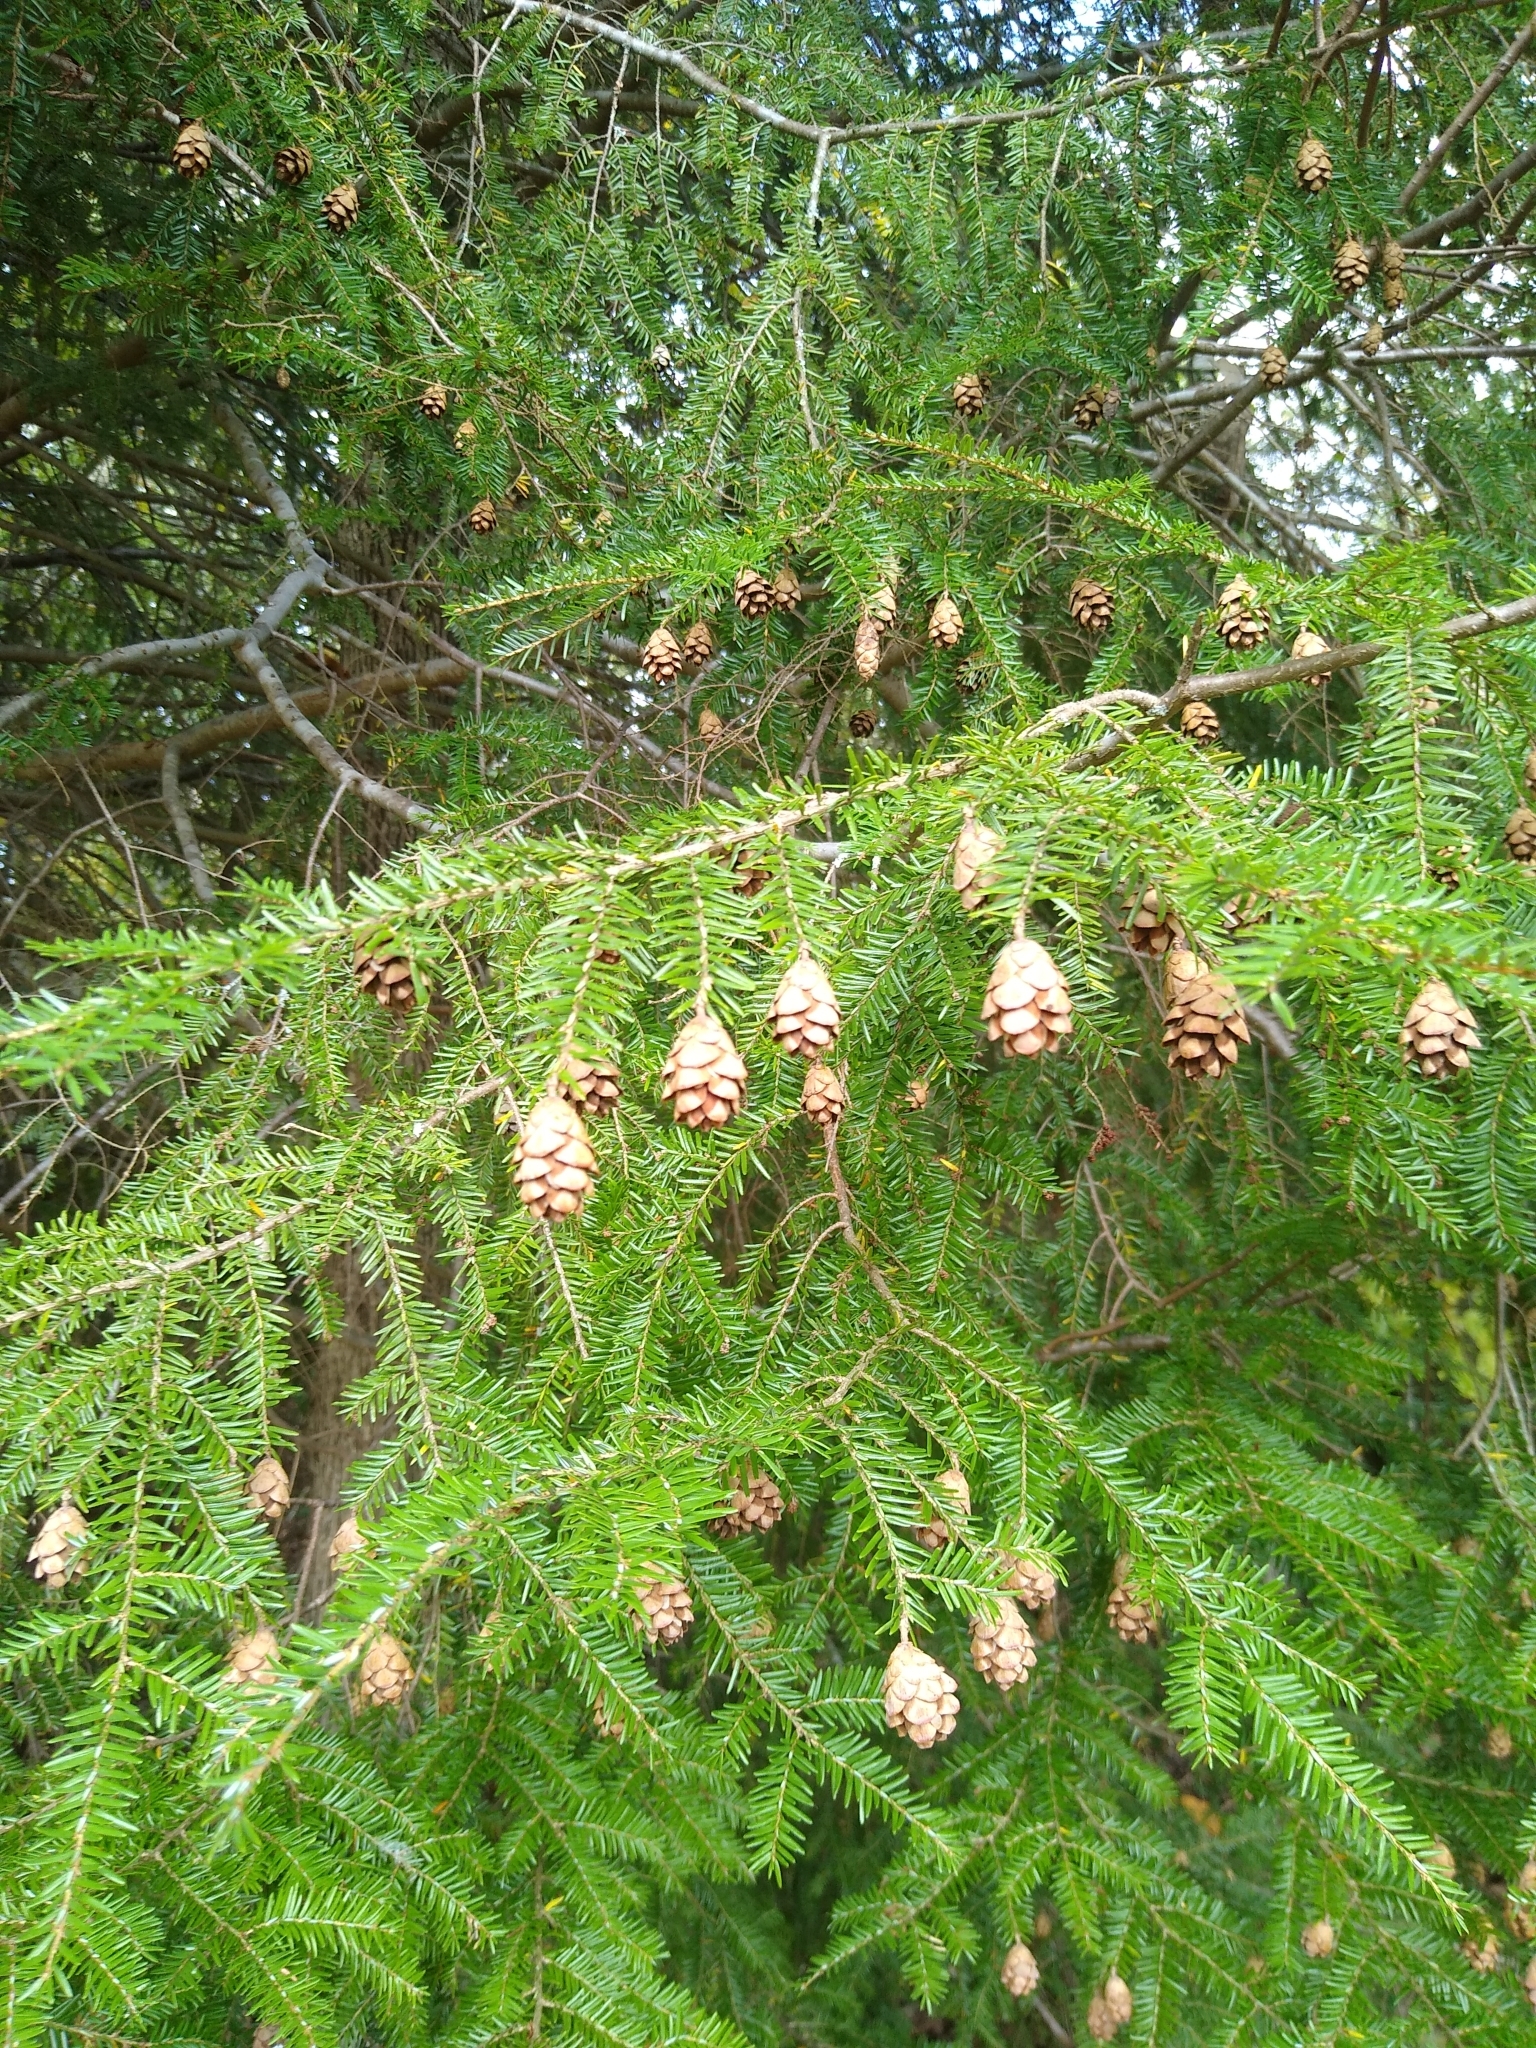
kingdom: Plantae
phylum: Tracheophyta
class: Pinopsida
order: Pinales
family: Pinaceae
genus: Tsuga
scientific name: Tsuga canadensis
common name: Eastern hemlock
